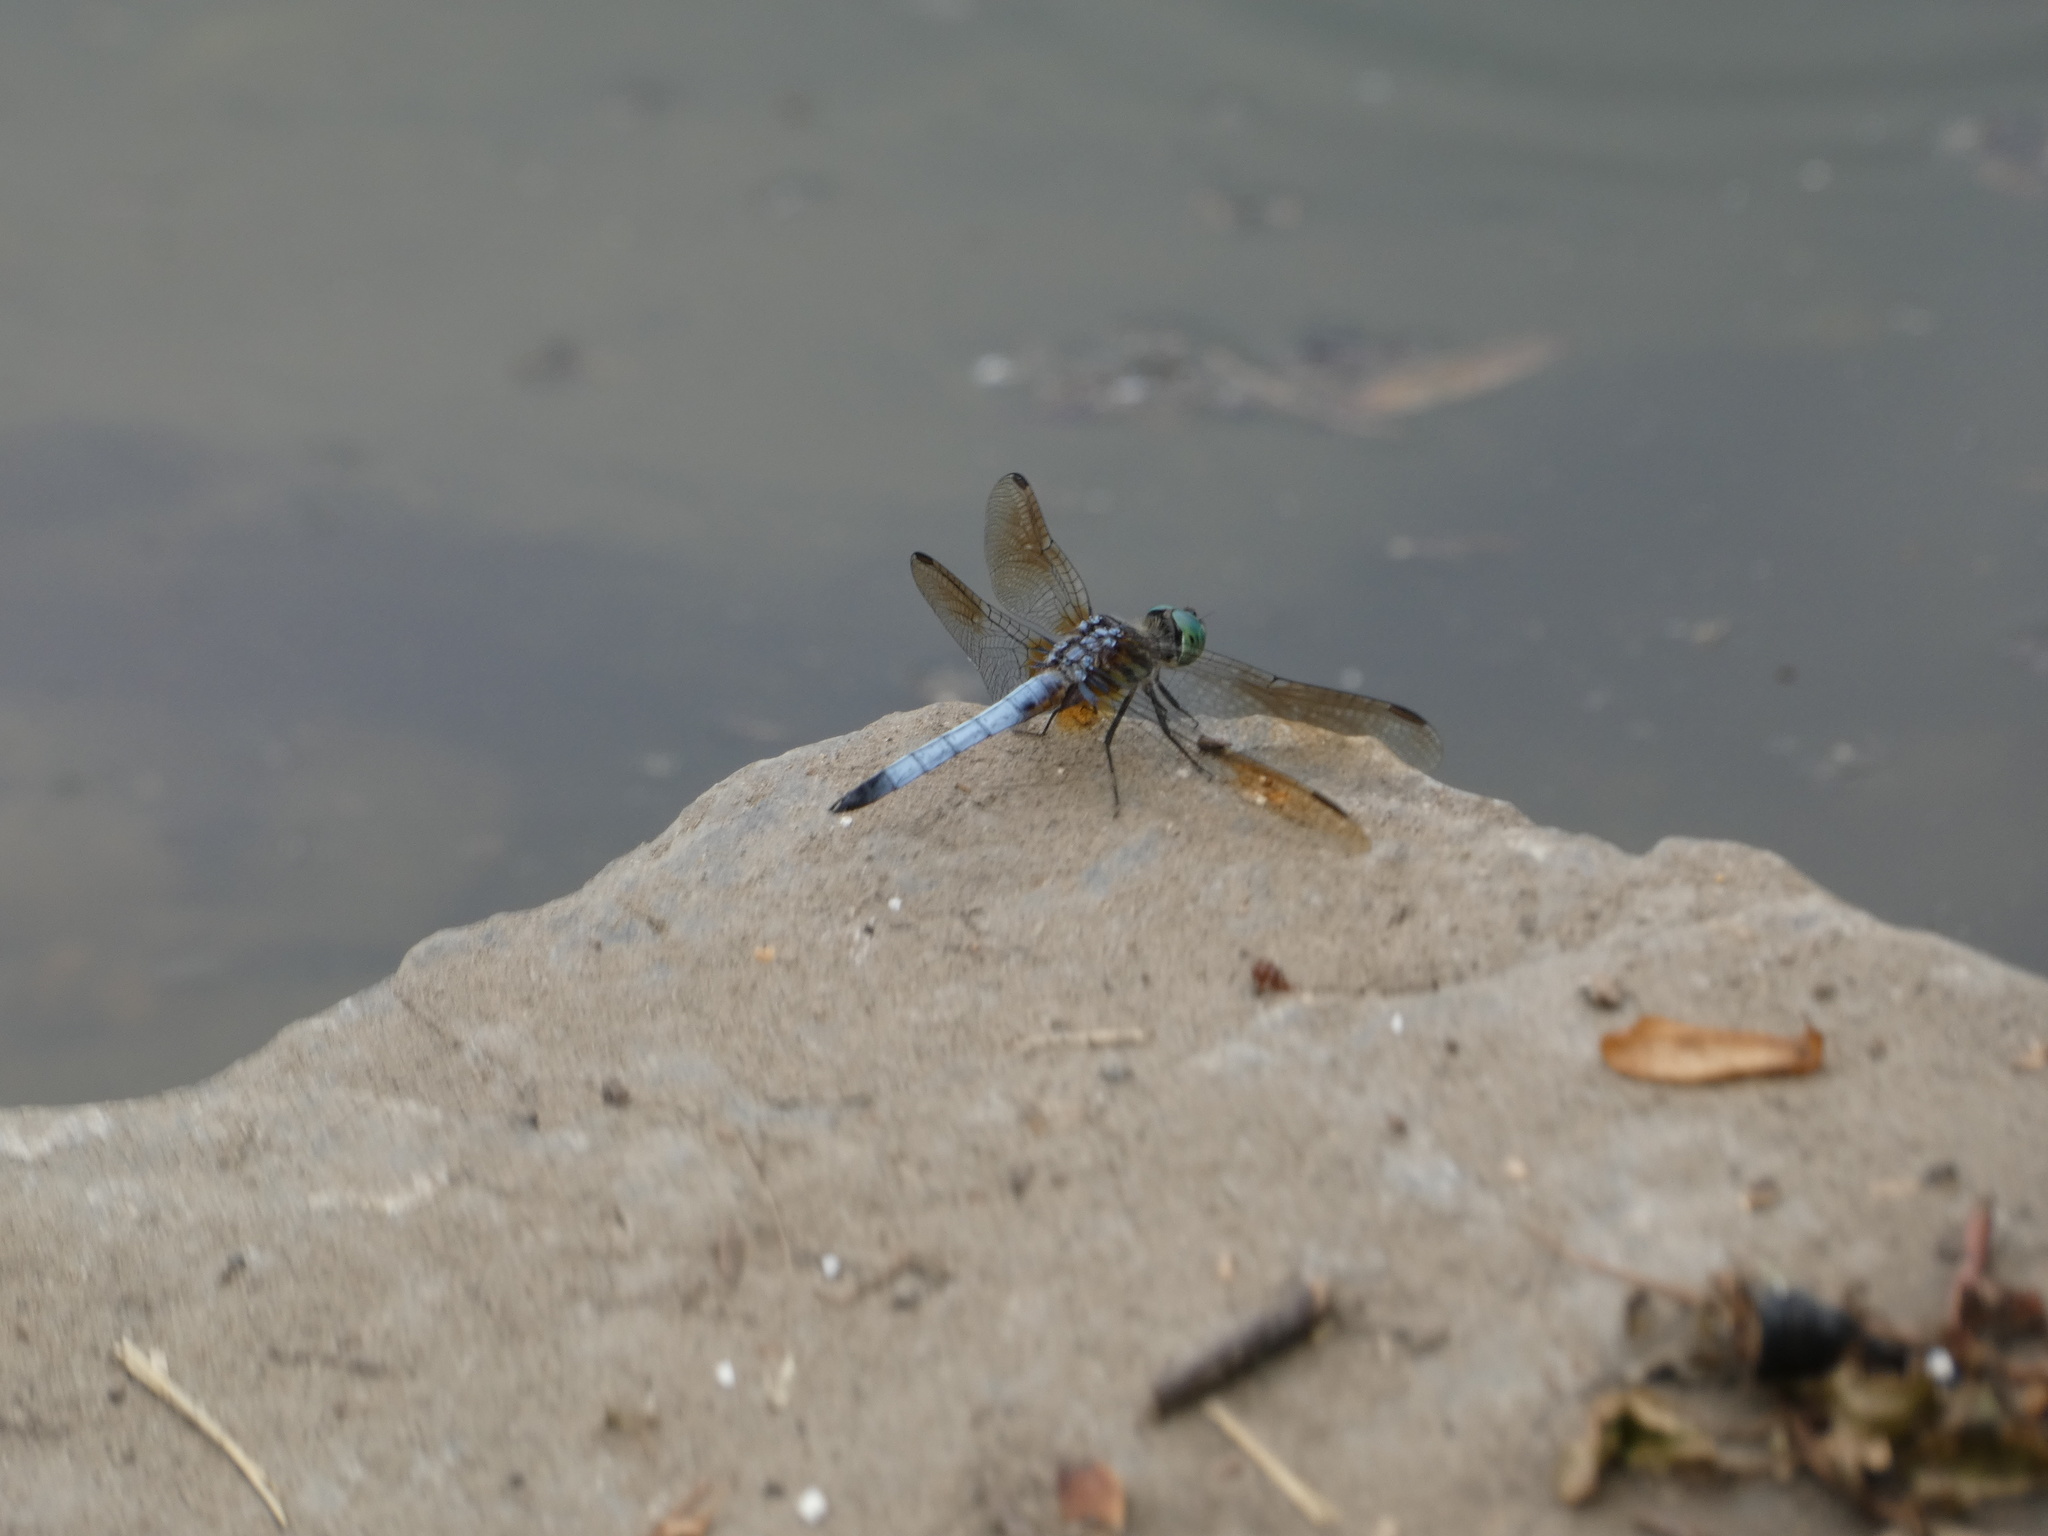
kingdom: Animalia
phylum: Arthropoda
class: Insecta
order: Odonata
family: Libellulidae
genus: Pachydiplax
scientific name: Pachydiplax longipennis
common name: Blue dasher
